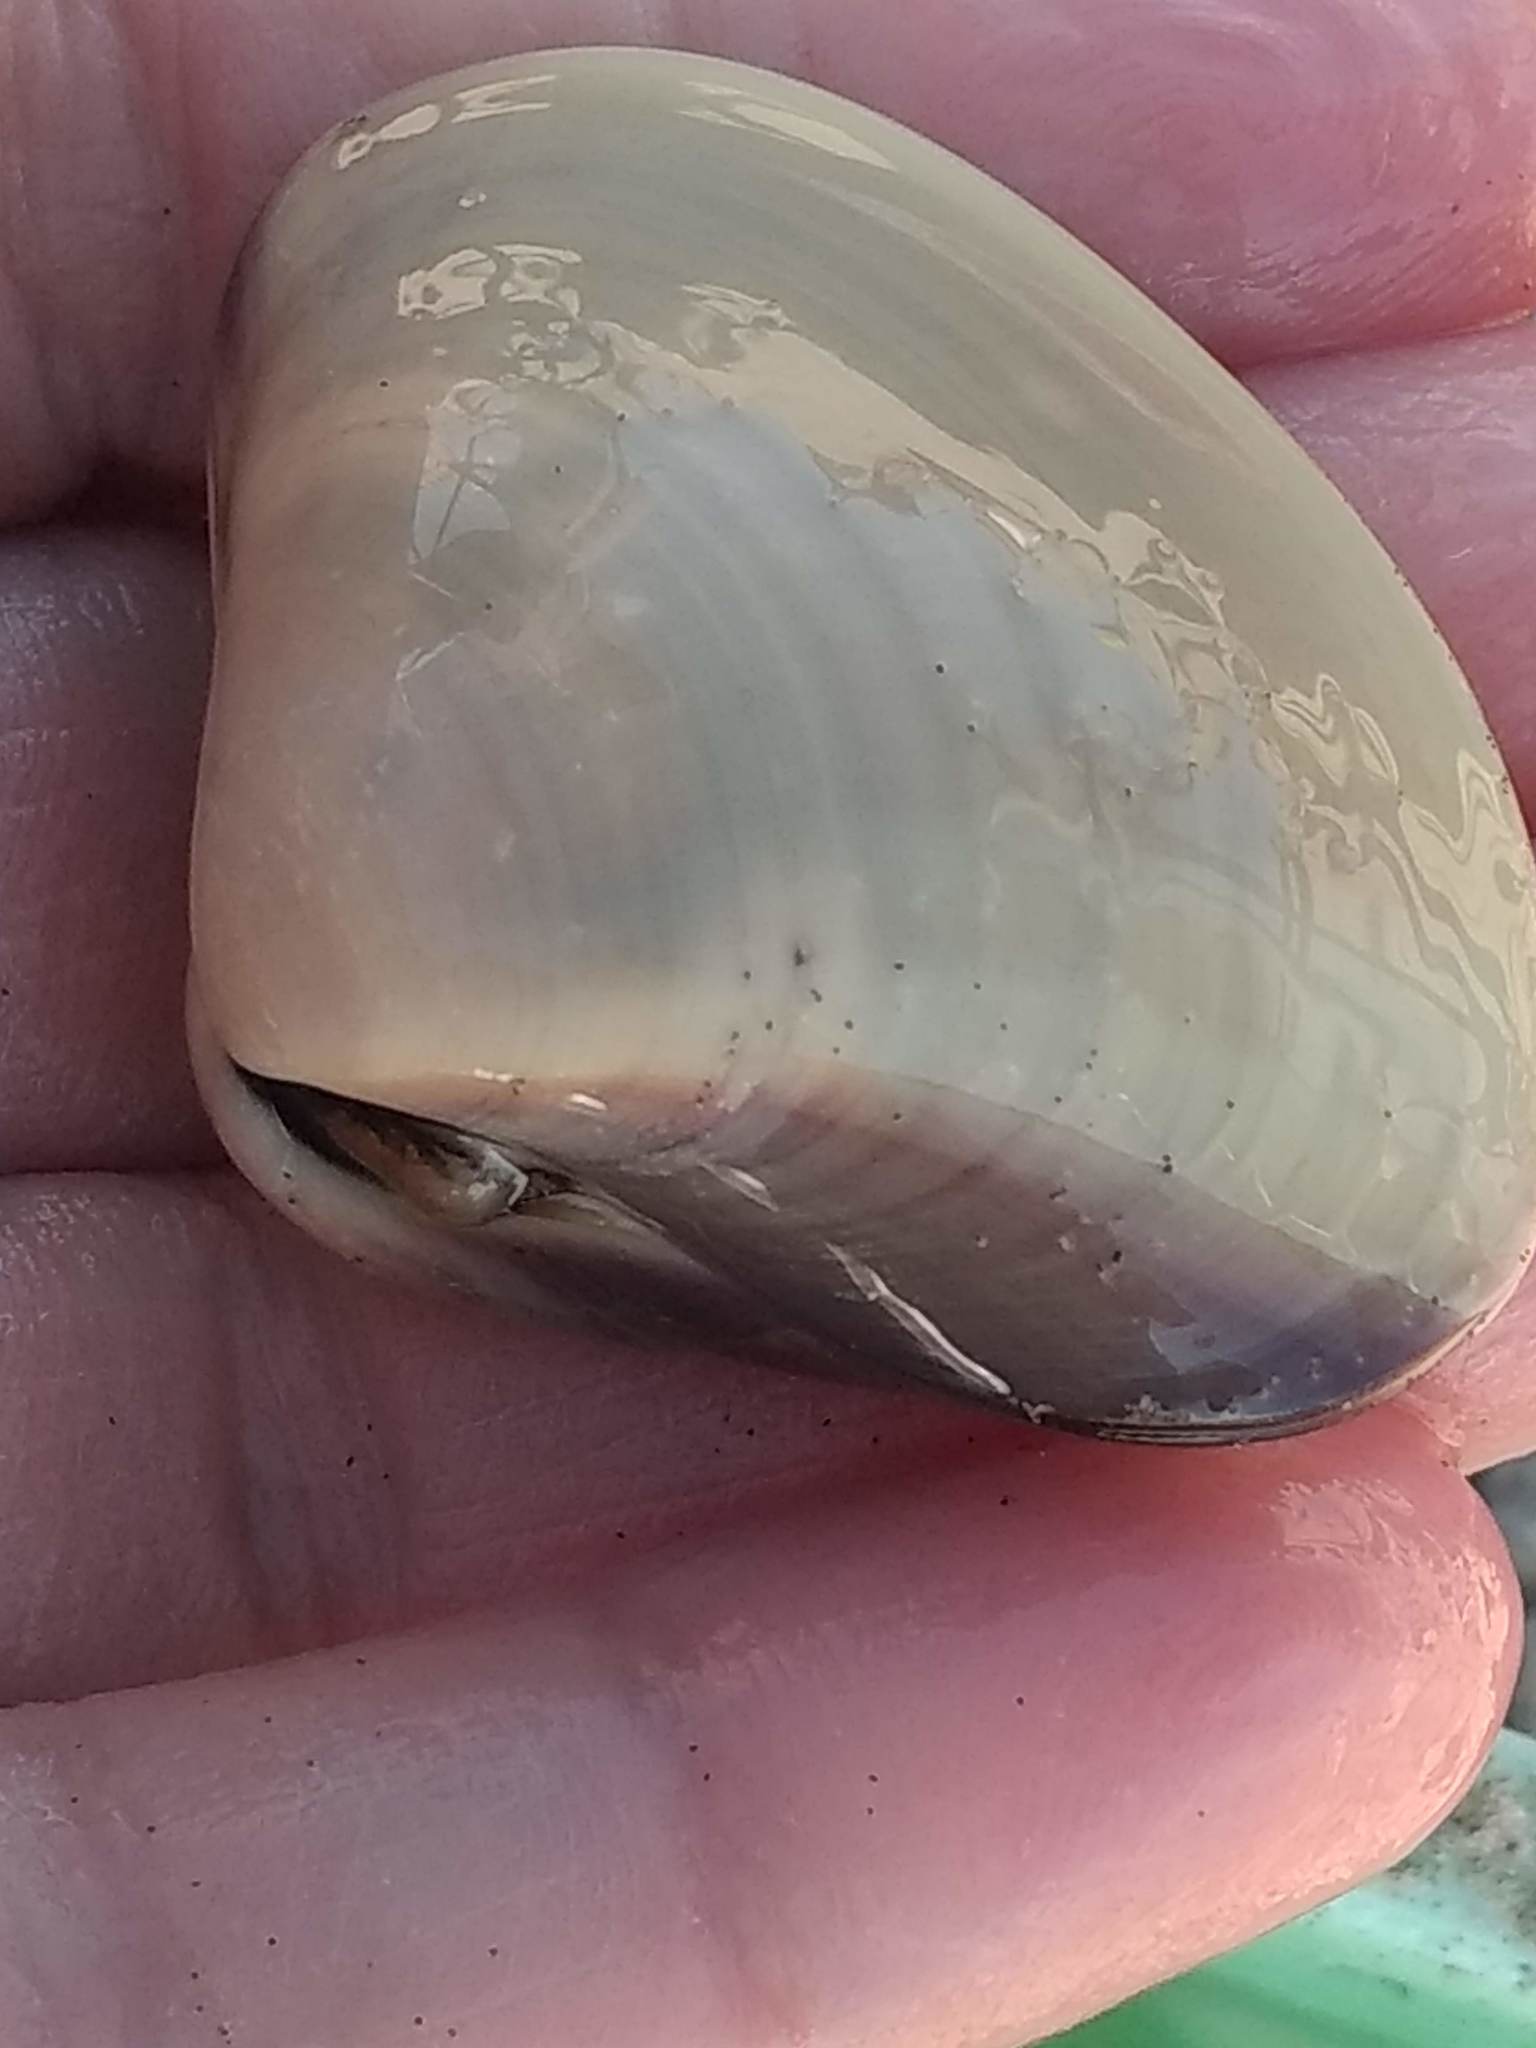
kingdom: Animalia
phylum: Mollusca
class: Bivalvia
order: Venerida
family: Veneridae
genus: Tivela
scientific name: Tivela stultorum
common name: Pismo clam
